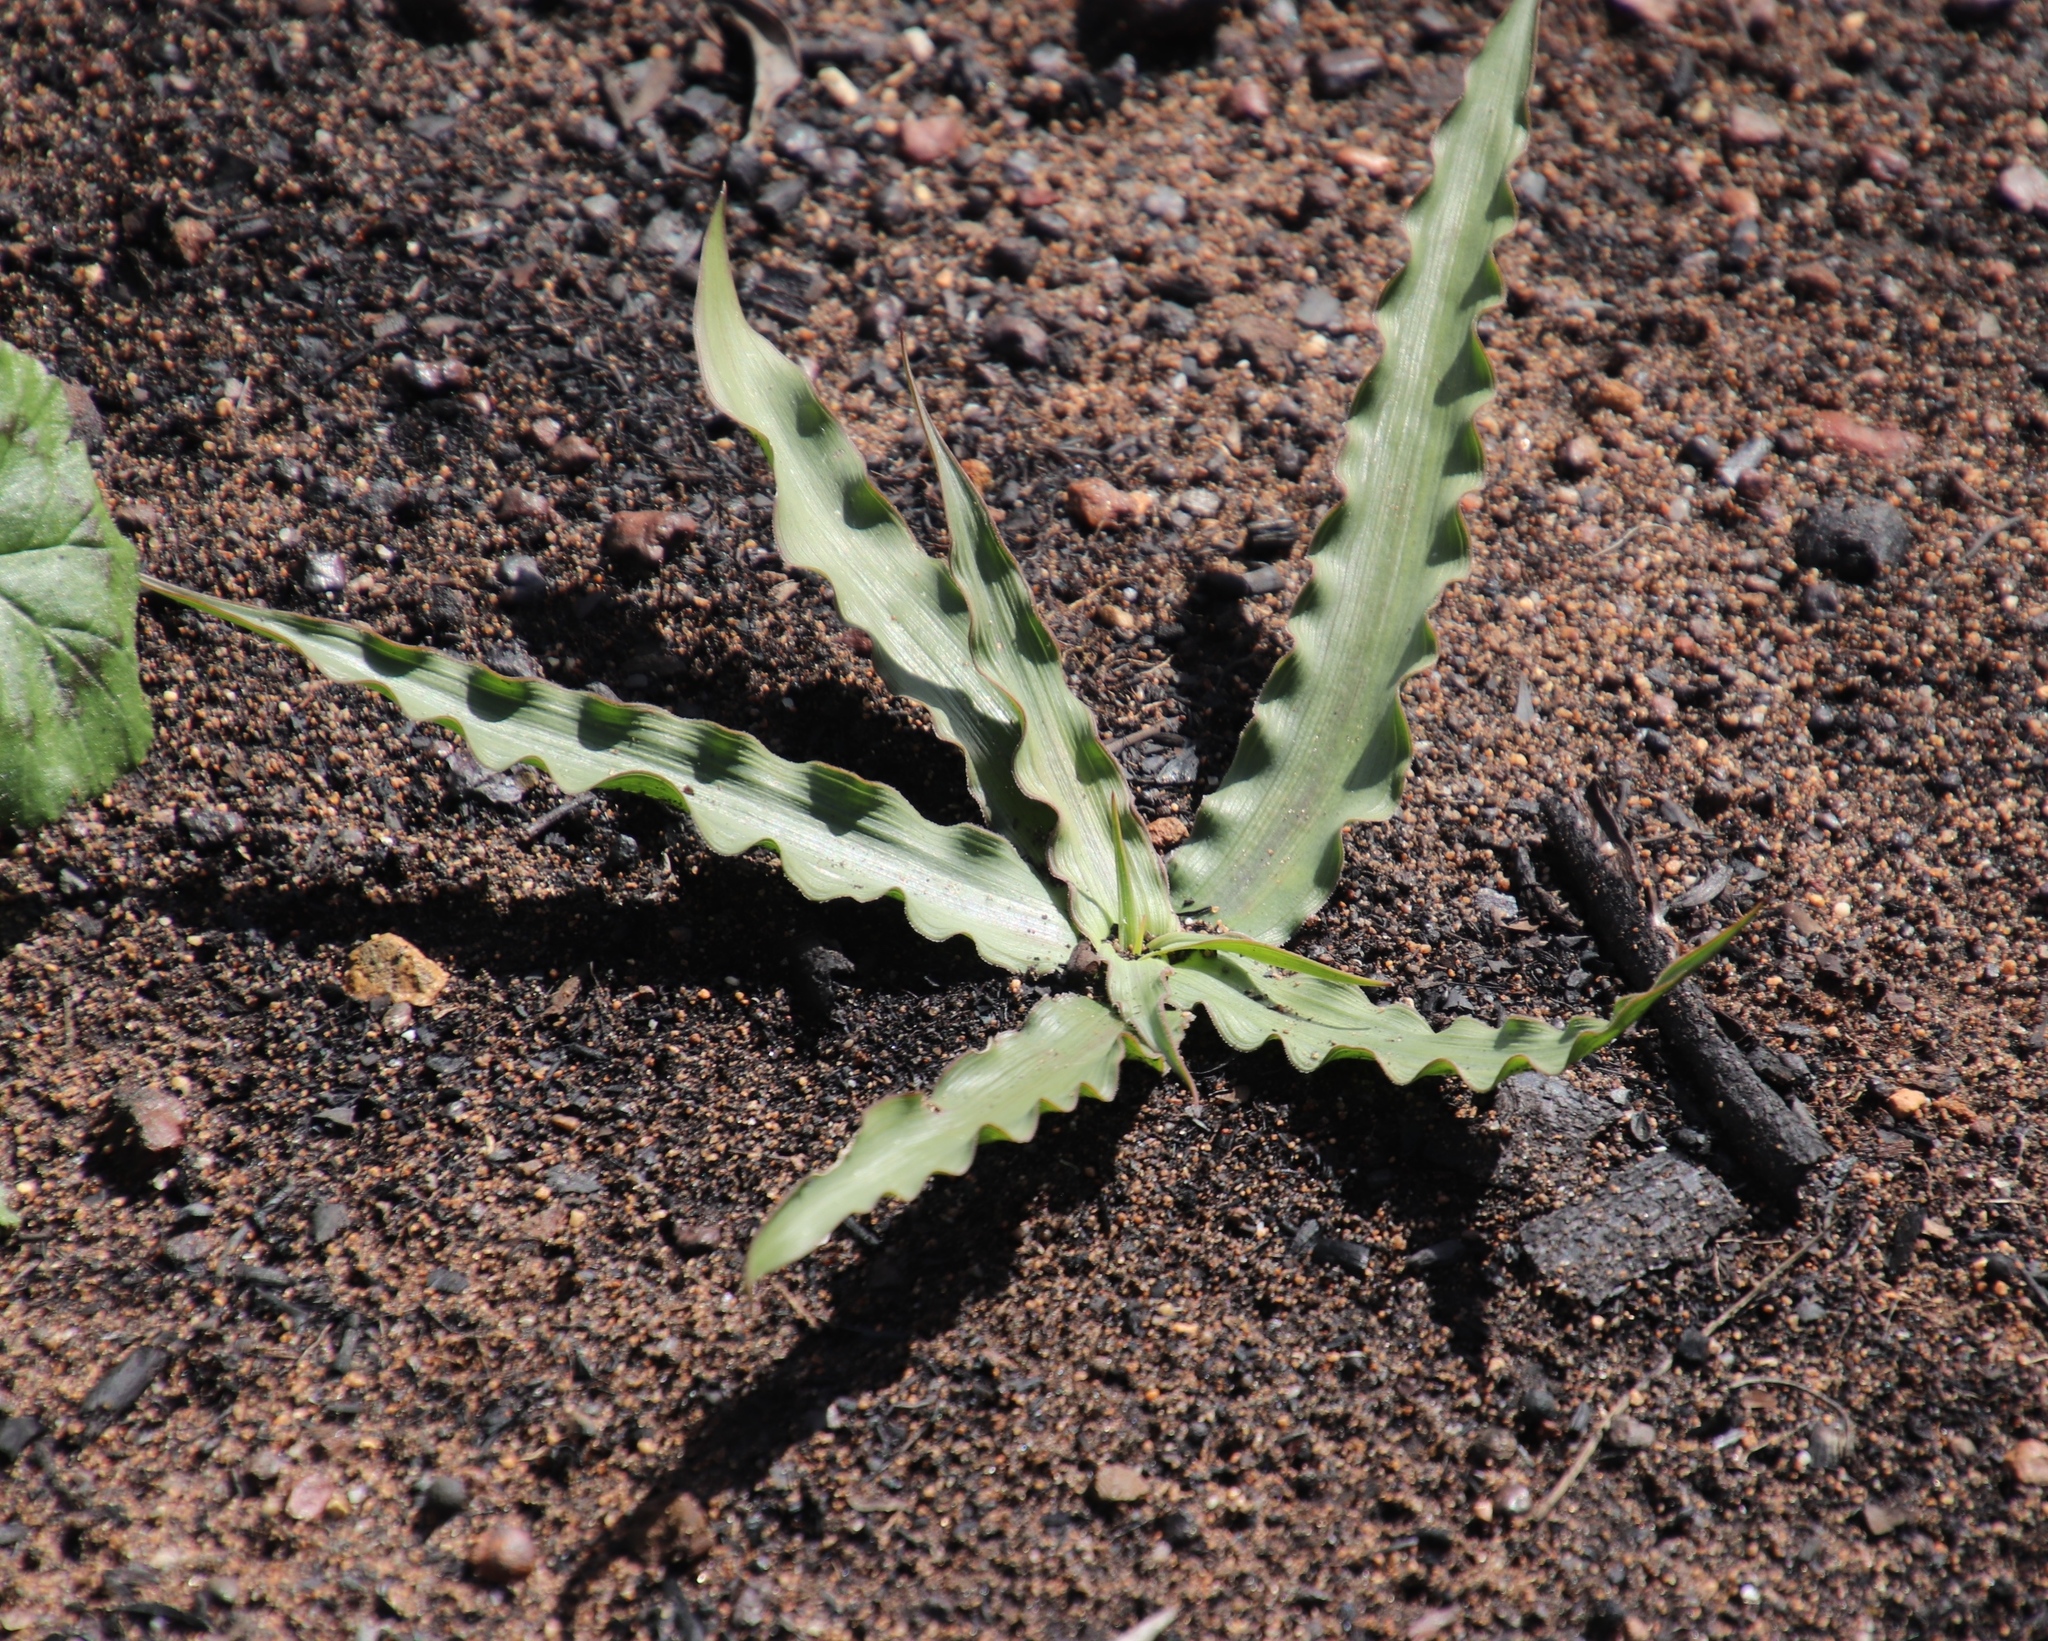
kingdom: Plantae
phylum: Tracheophyta
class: Liliopsida
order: Asparagales
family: Tecophilaeaceae
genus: Cyanella
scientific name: Cyanella hyacinthoides
